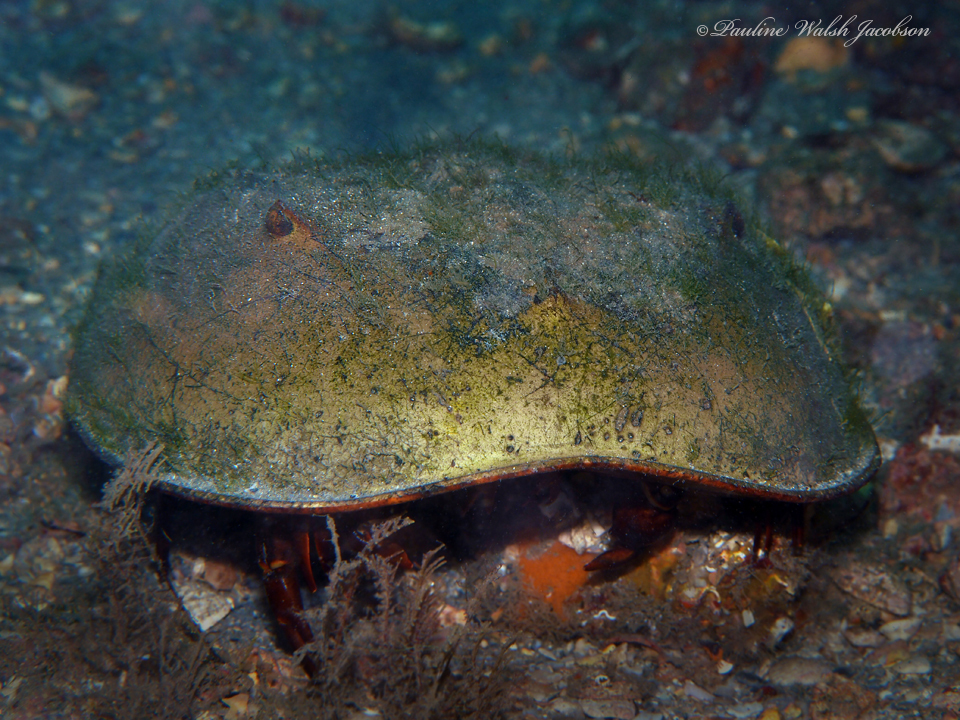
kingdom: Animalia
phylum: Arthropoda
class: Merostomata
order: Xiphosurida
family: Limulidae
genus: Limulus
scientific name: Limulus polyphemus
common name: Horseshoe crab
